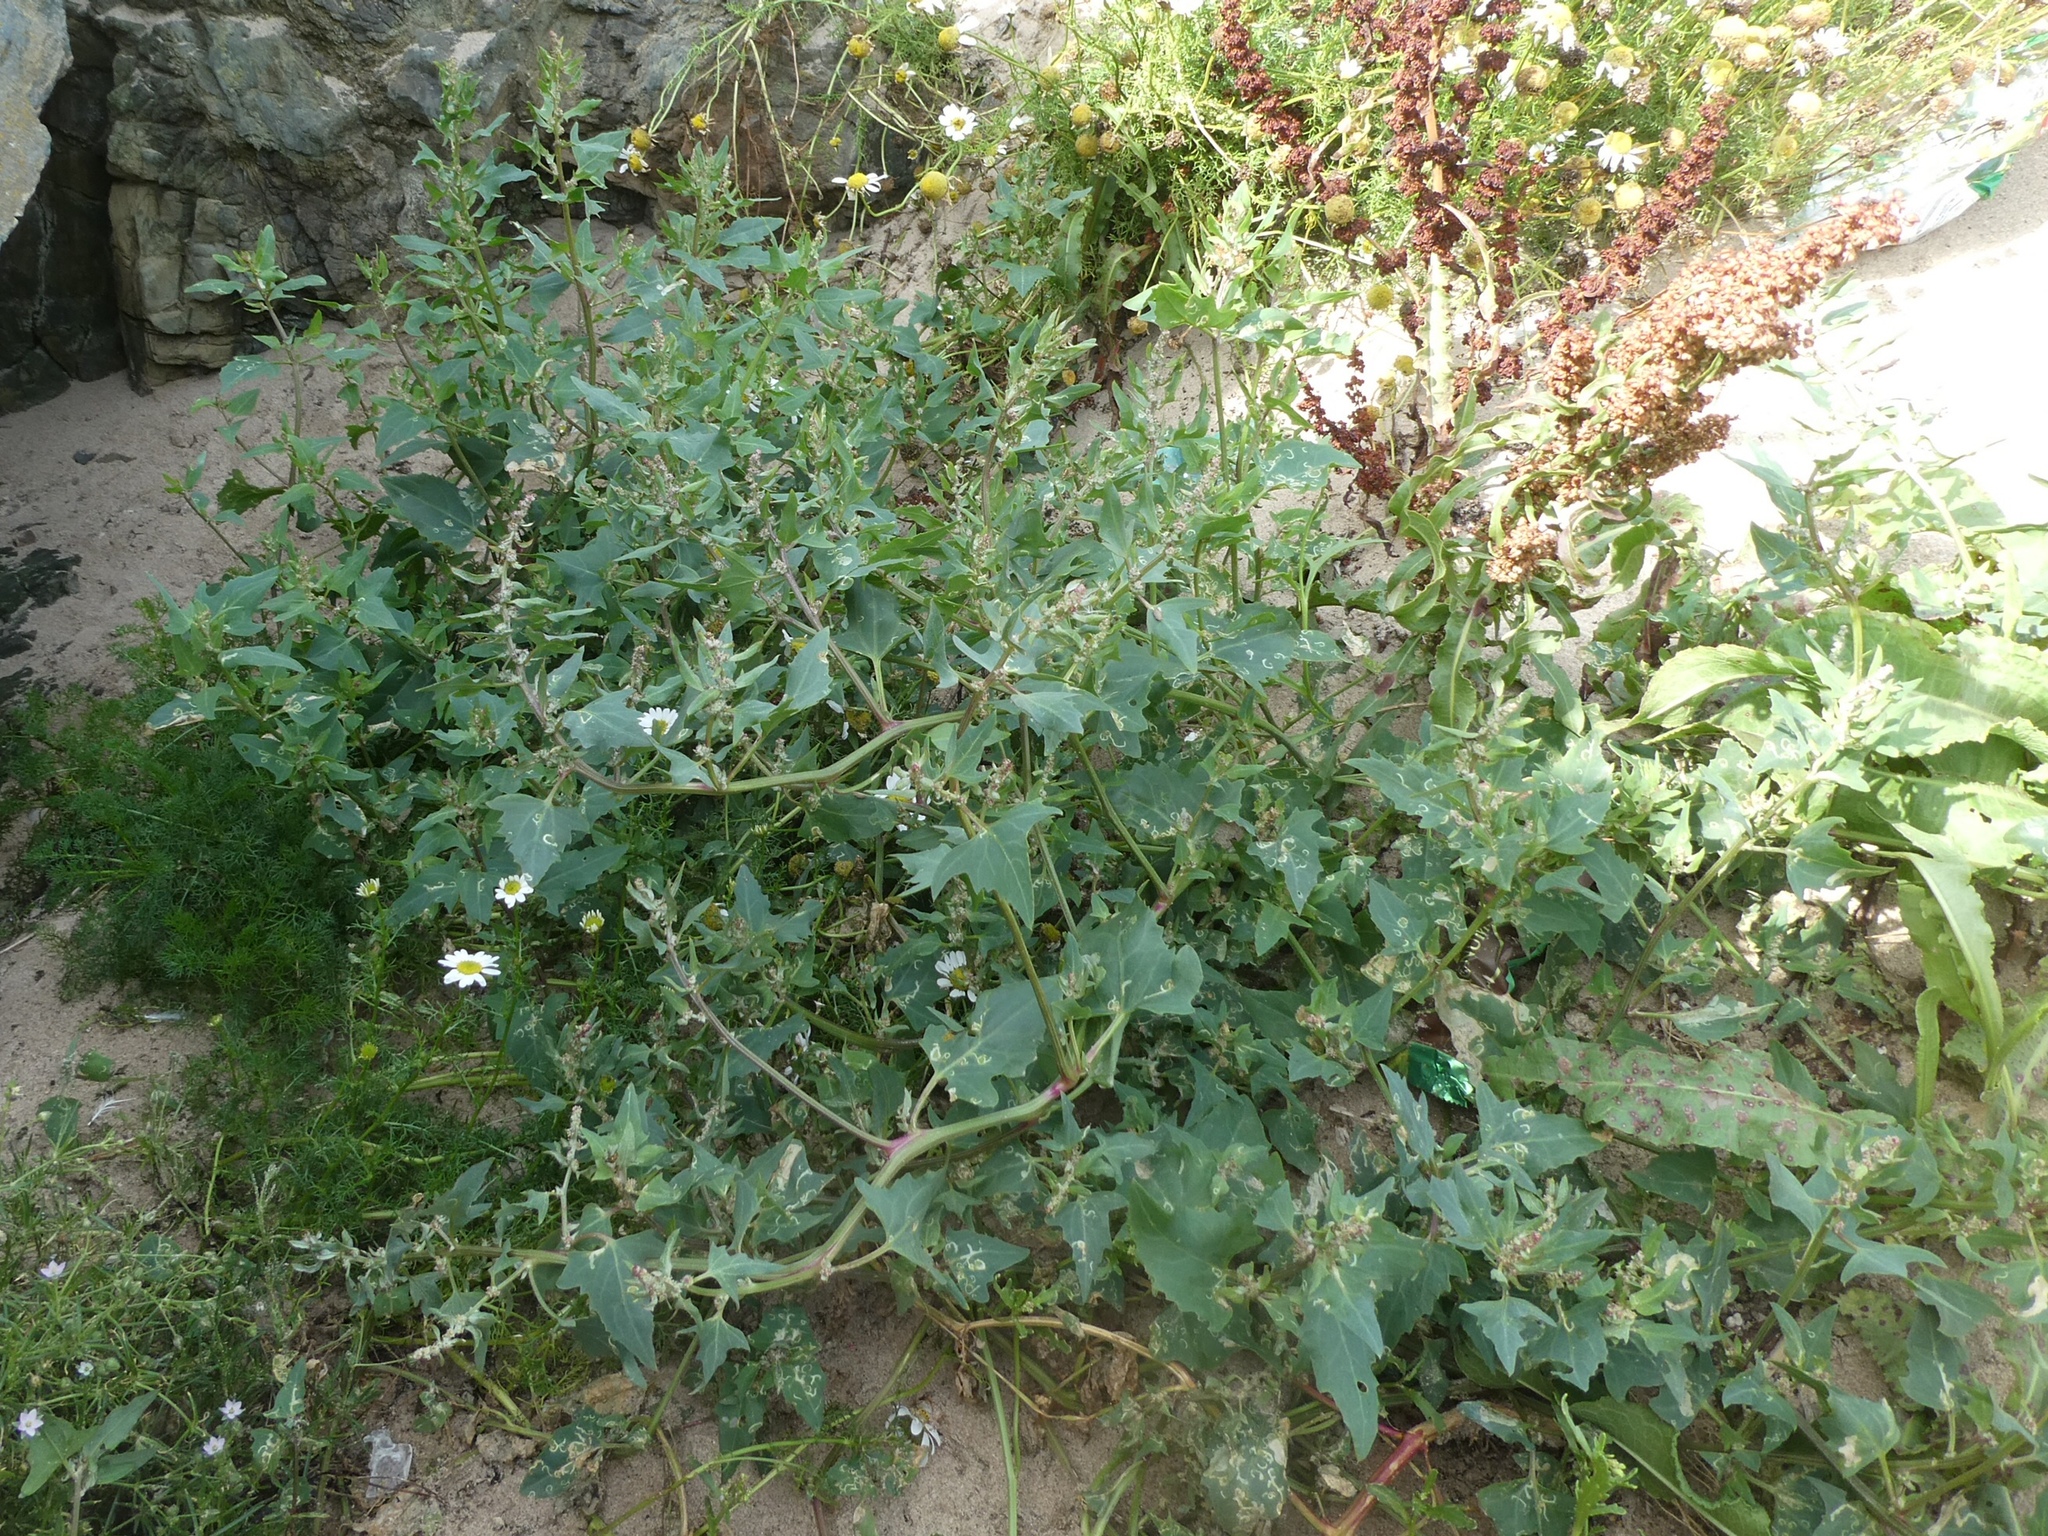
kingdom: Plantae
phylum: Tracheophyta
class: Magnoliopsida
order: Caryophyllales
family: Amaranthaceae
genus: Atriplex
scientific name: Atriplex prostrata
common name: Spear-leaved orache
